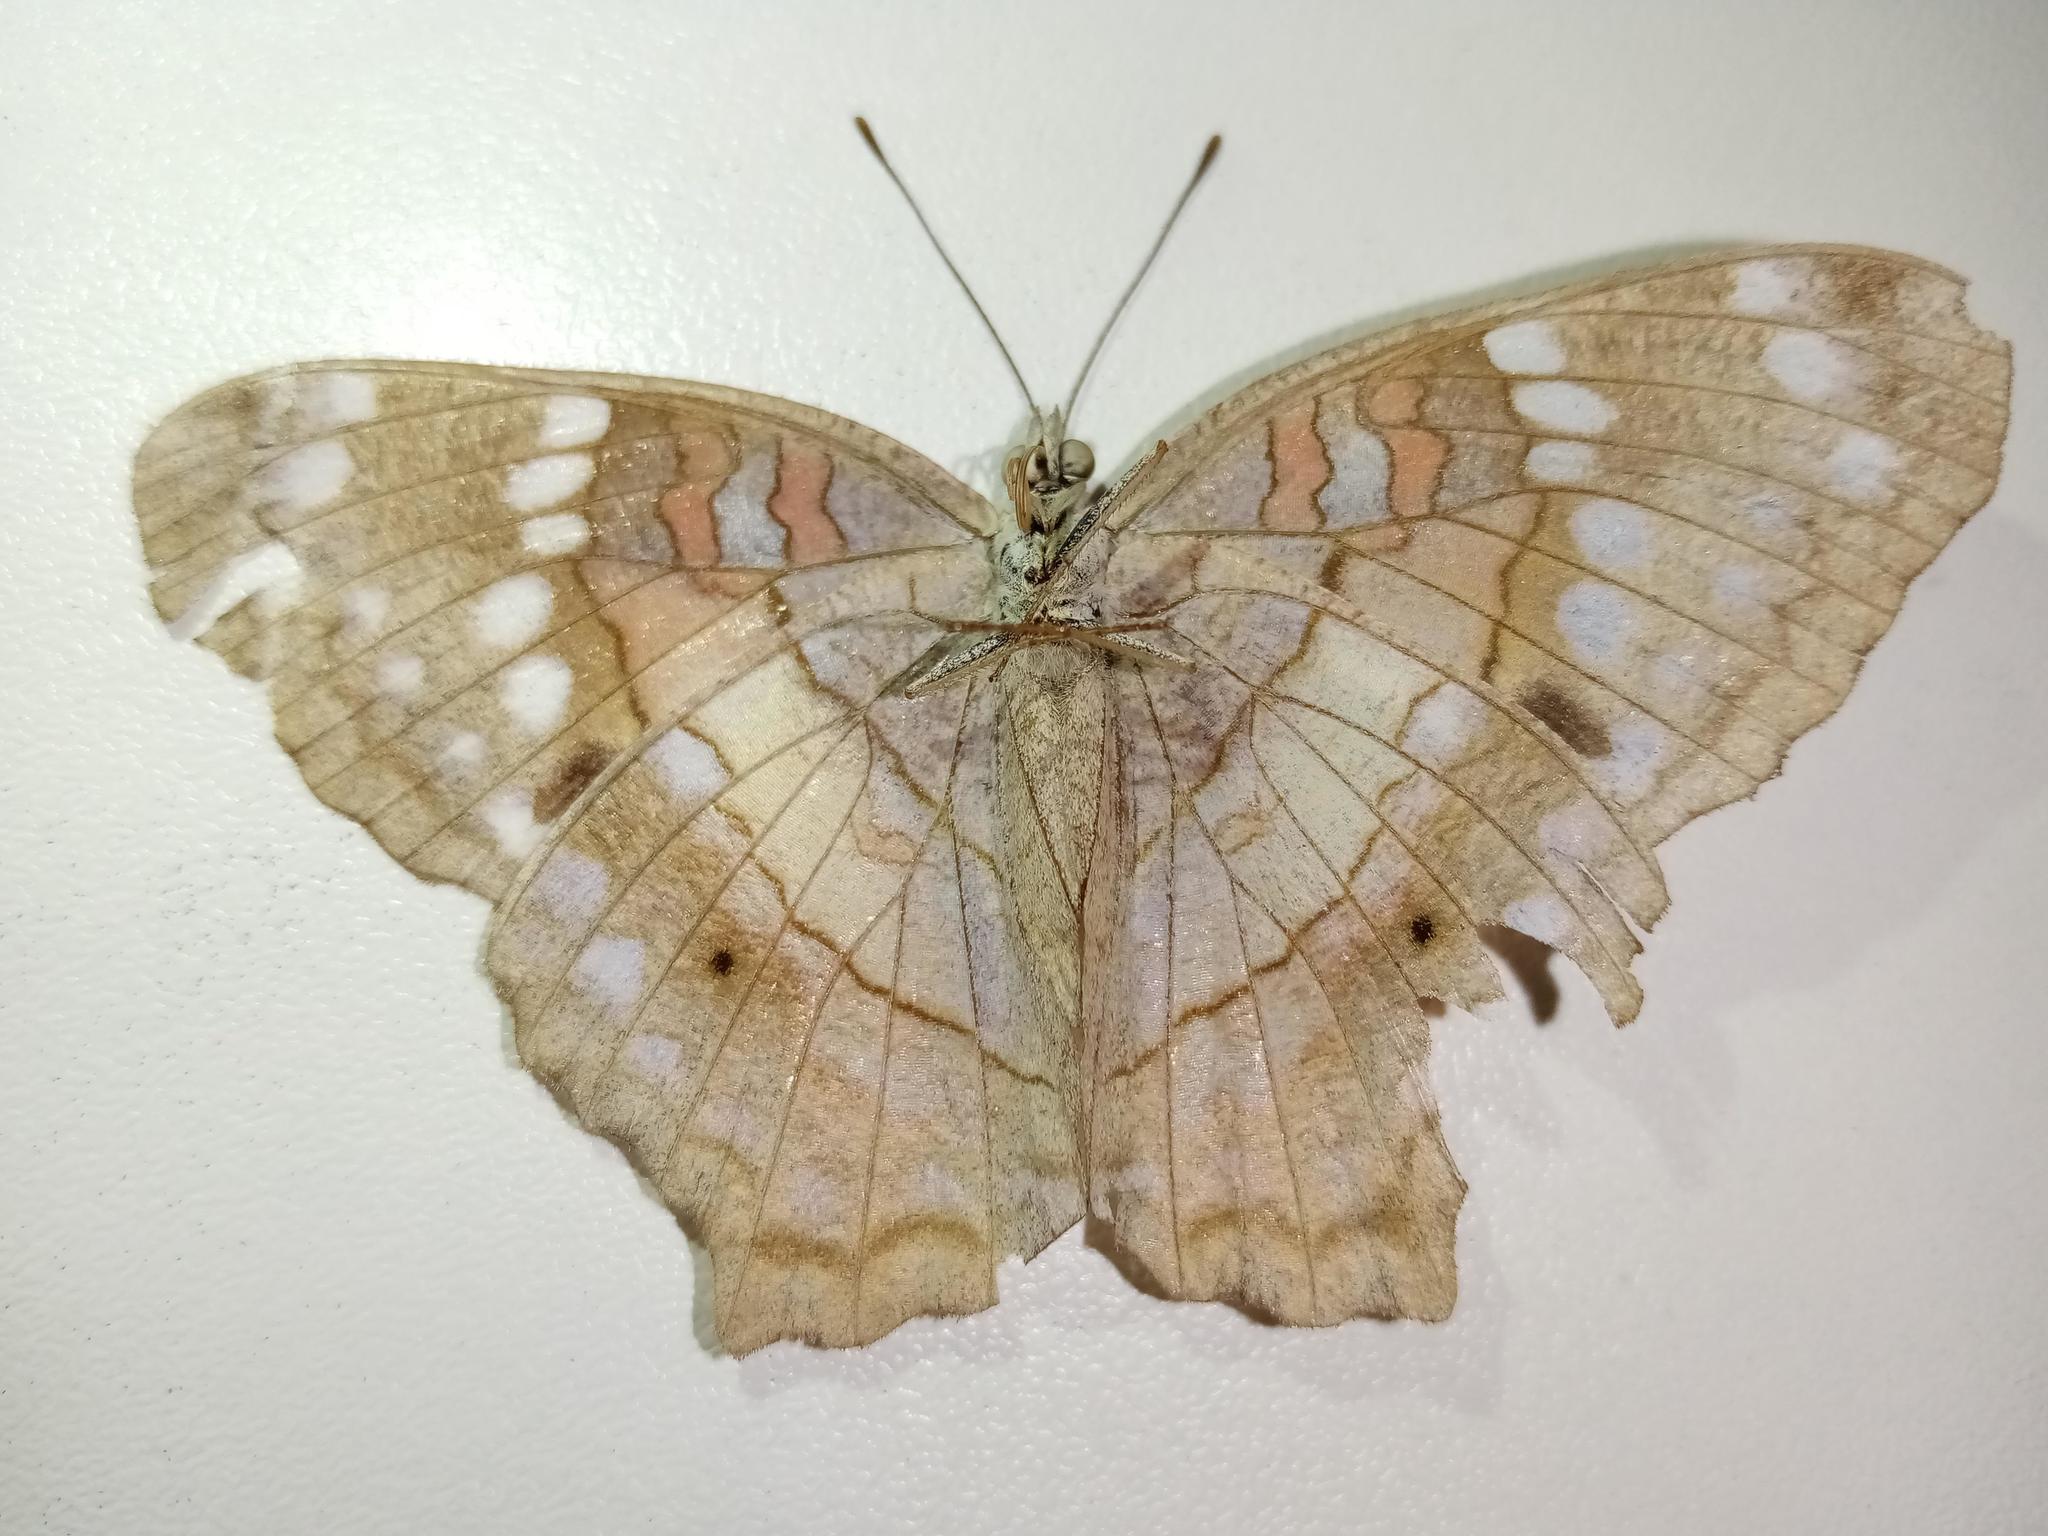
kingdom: Animalia
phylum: Arthropoda
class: Insecta
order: Lepidoptera
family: Nymphalidae
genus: Anartia
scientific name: Anartia amathea
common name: Red peacock
